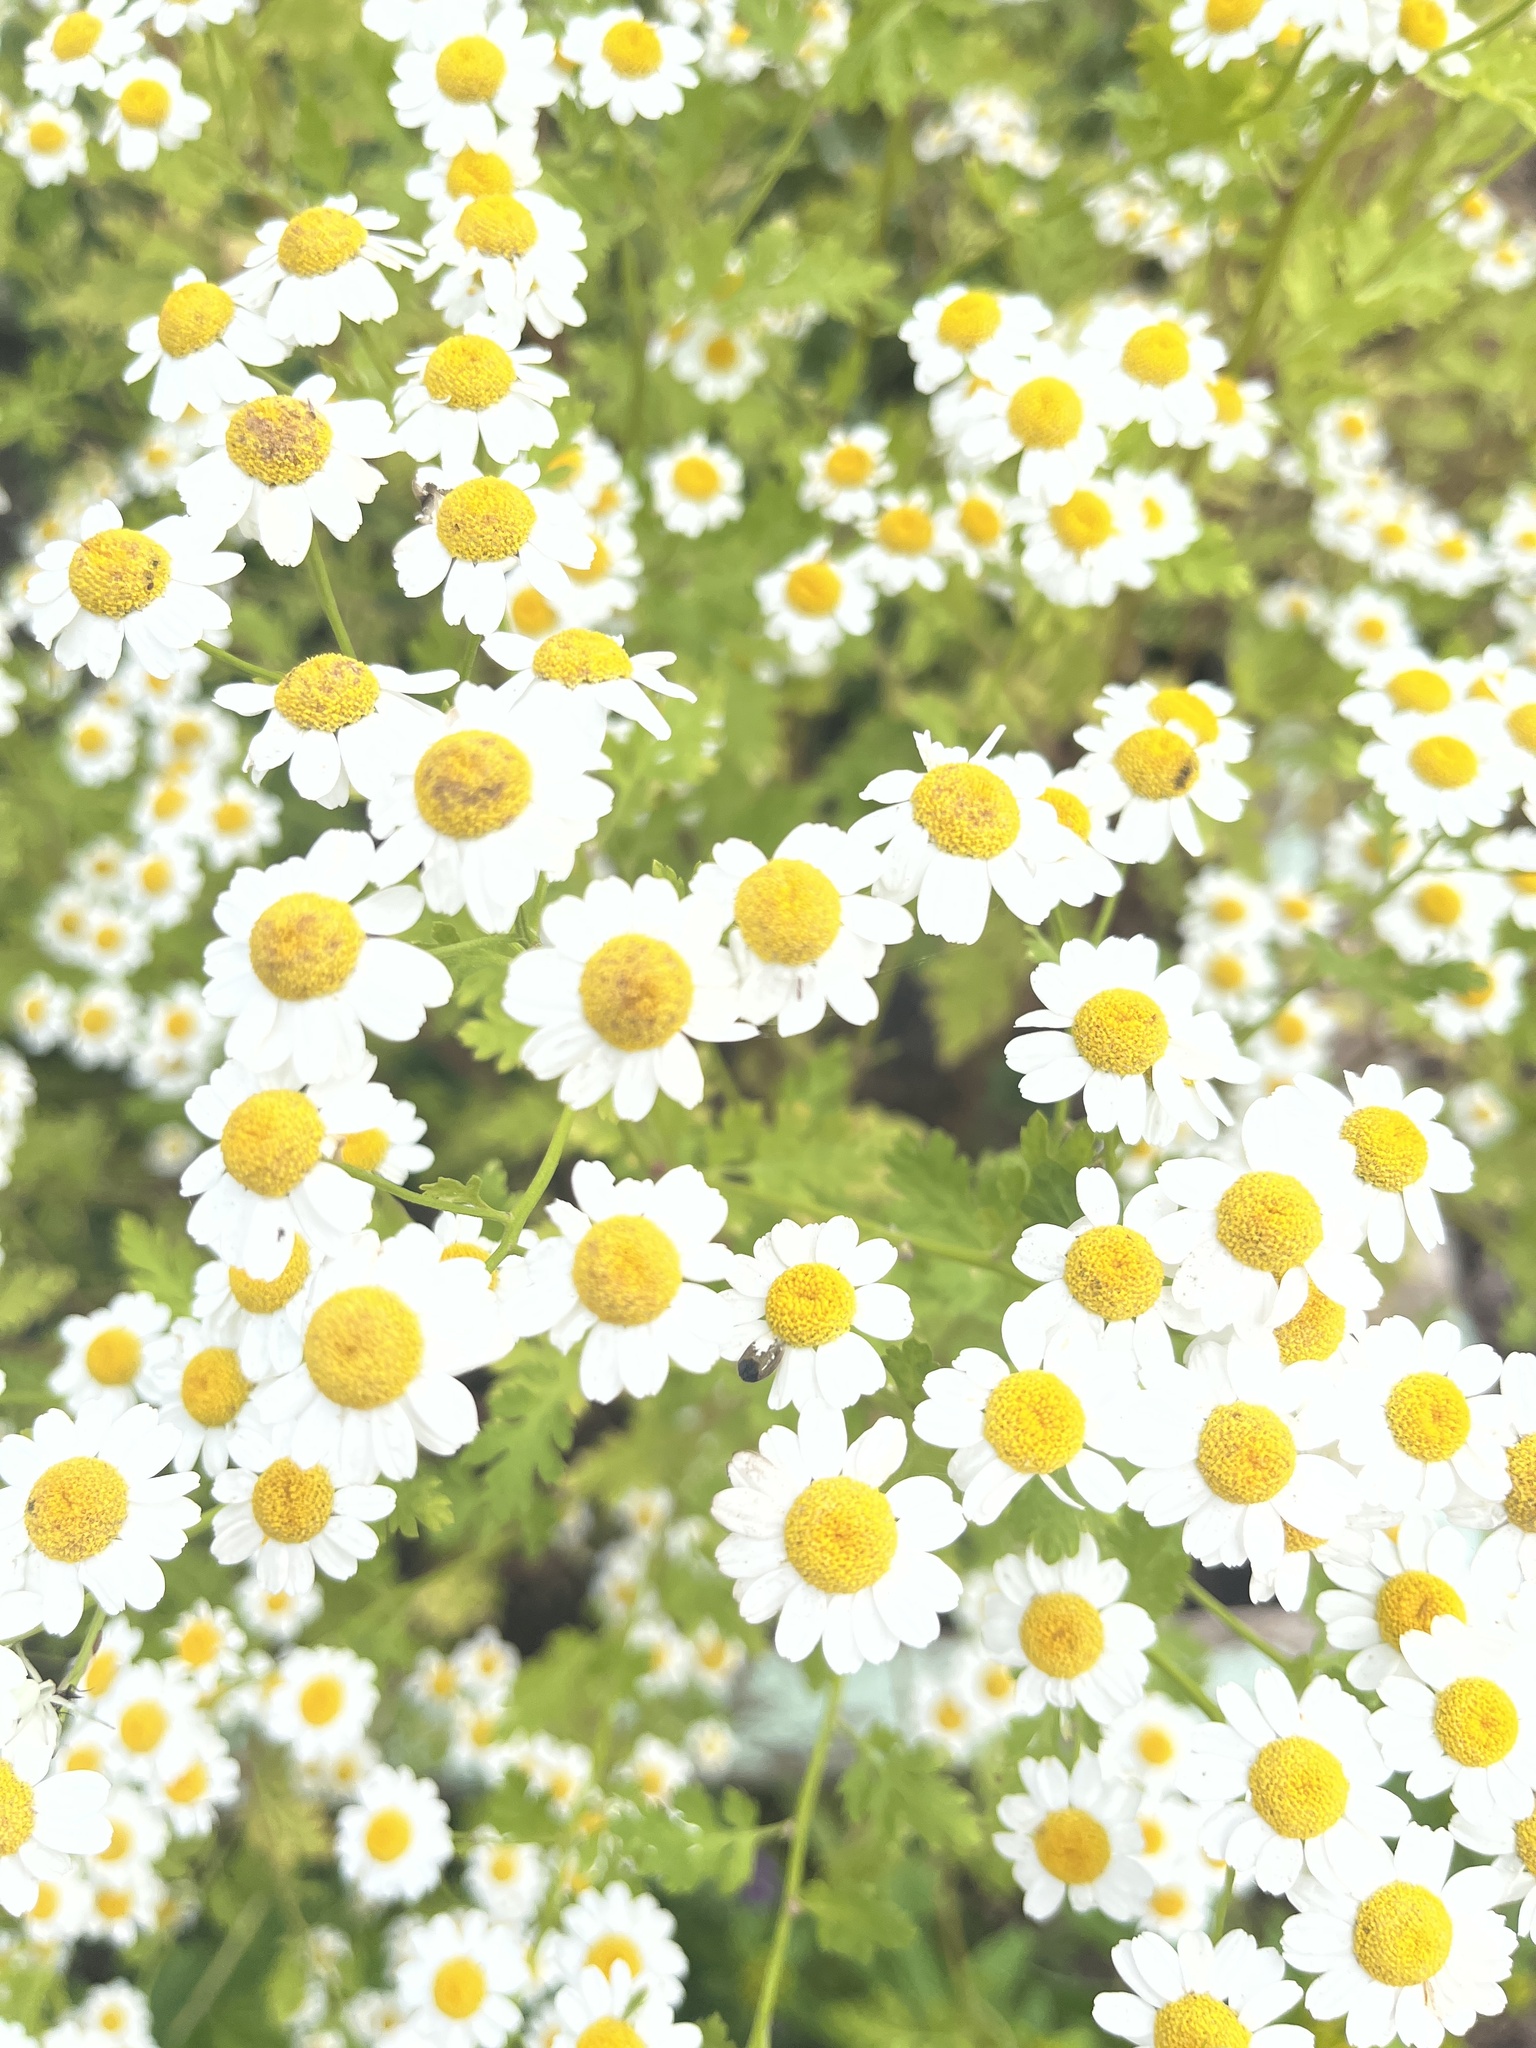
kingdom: Plantae
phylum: Tracheophyta
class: Magnoliopsida
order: Asterales
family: Asteraceae
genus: Tanacetum
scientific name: Tanacetum parthenium
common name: Feverfew
